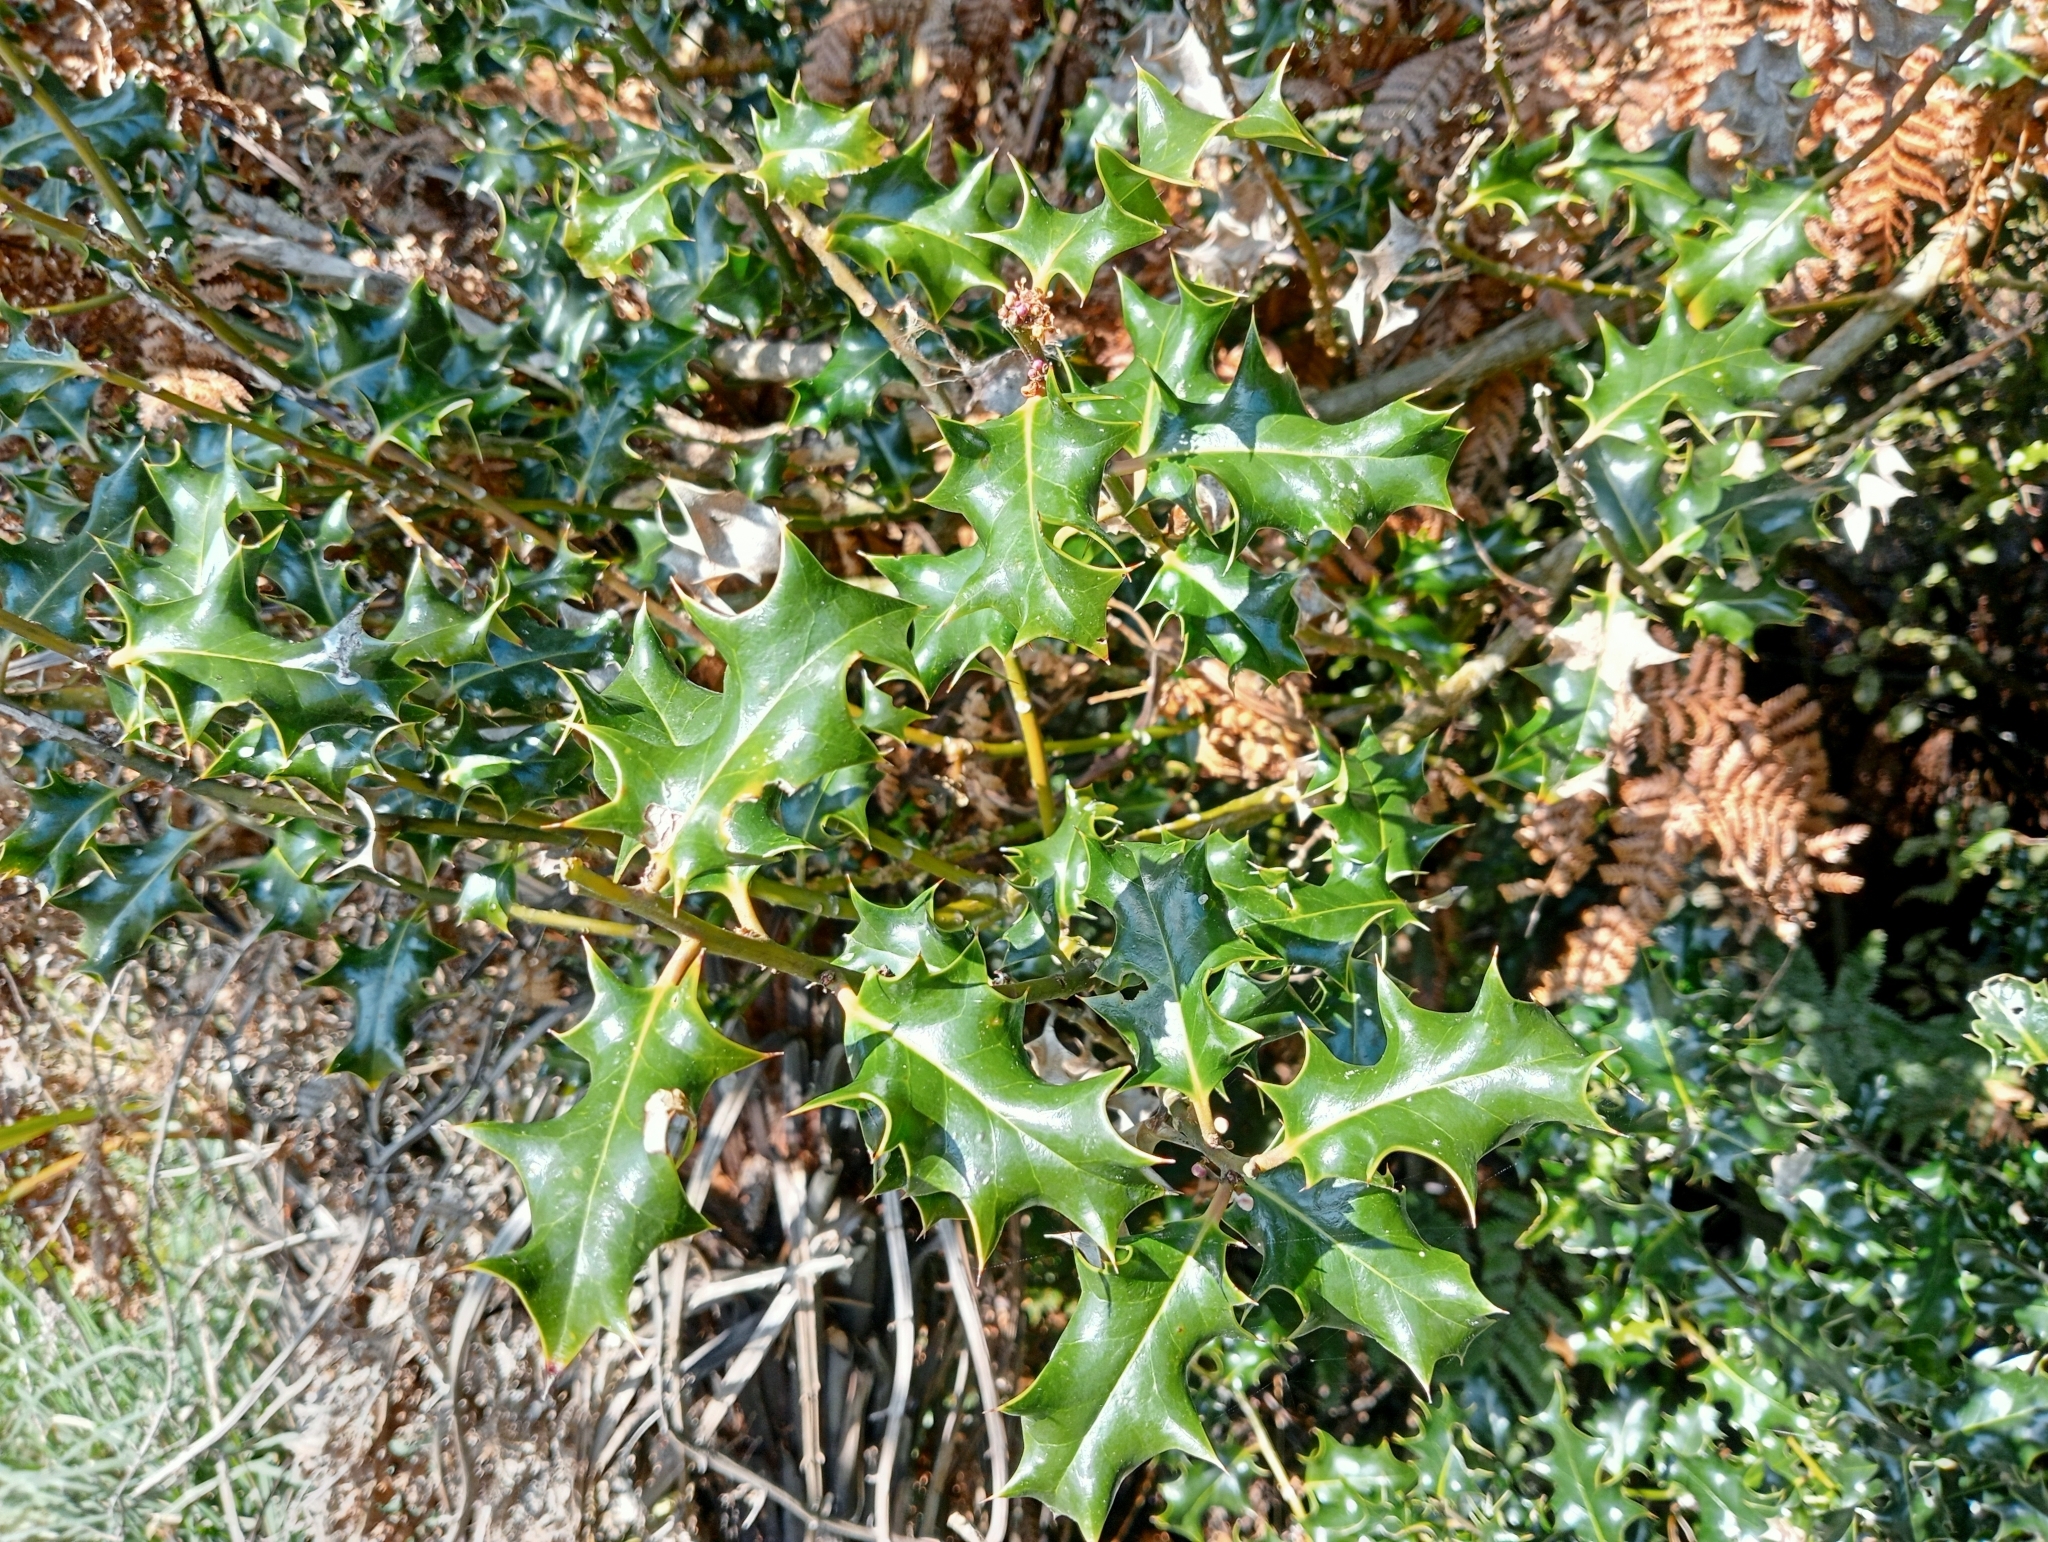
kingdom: Plantae
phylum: Tracheophyta
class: Magnoliopsida
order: Aquifoliales
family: Aquifoliaceae
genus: Ilex
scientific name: Ilex aquifolium
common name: English holly
